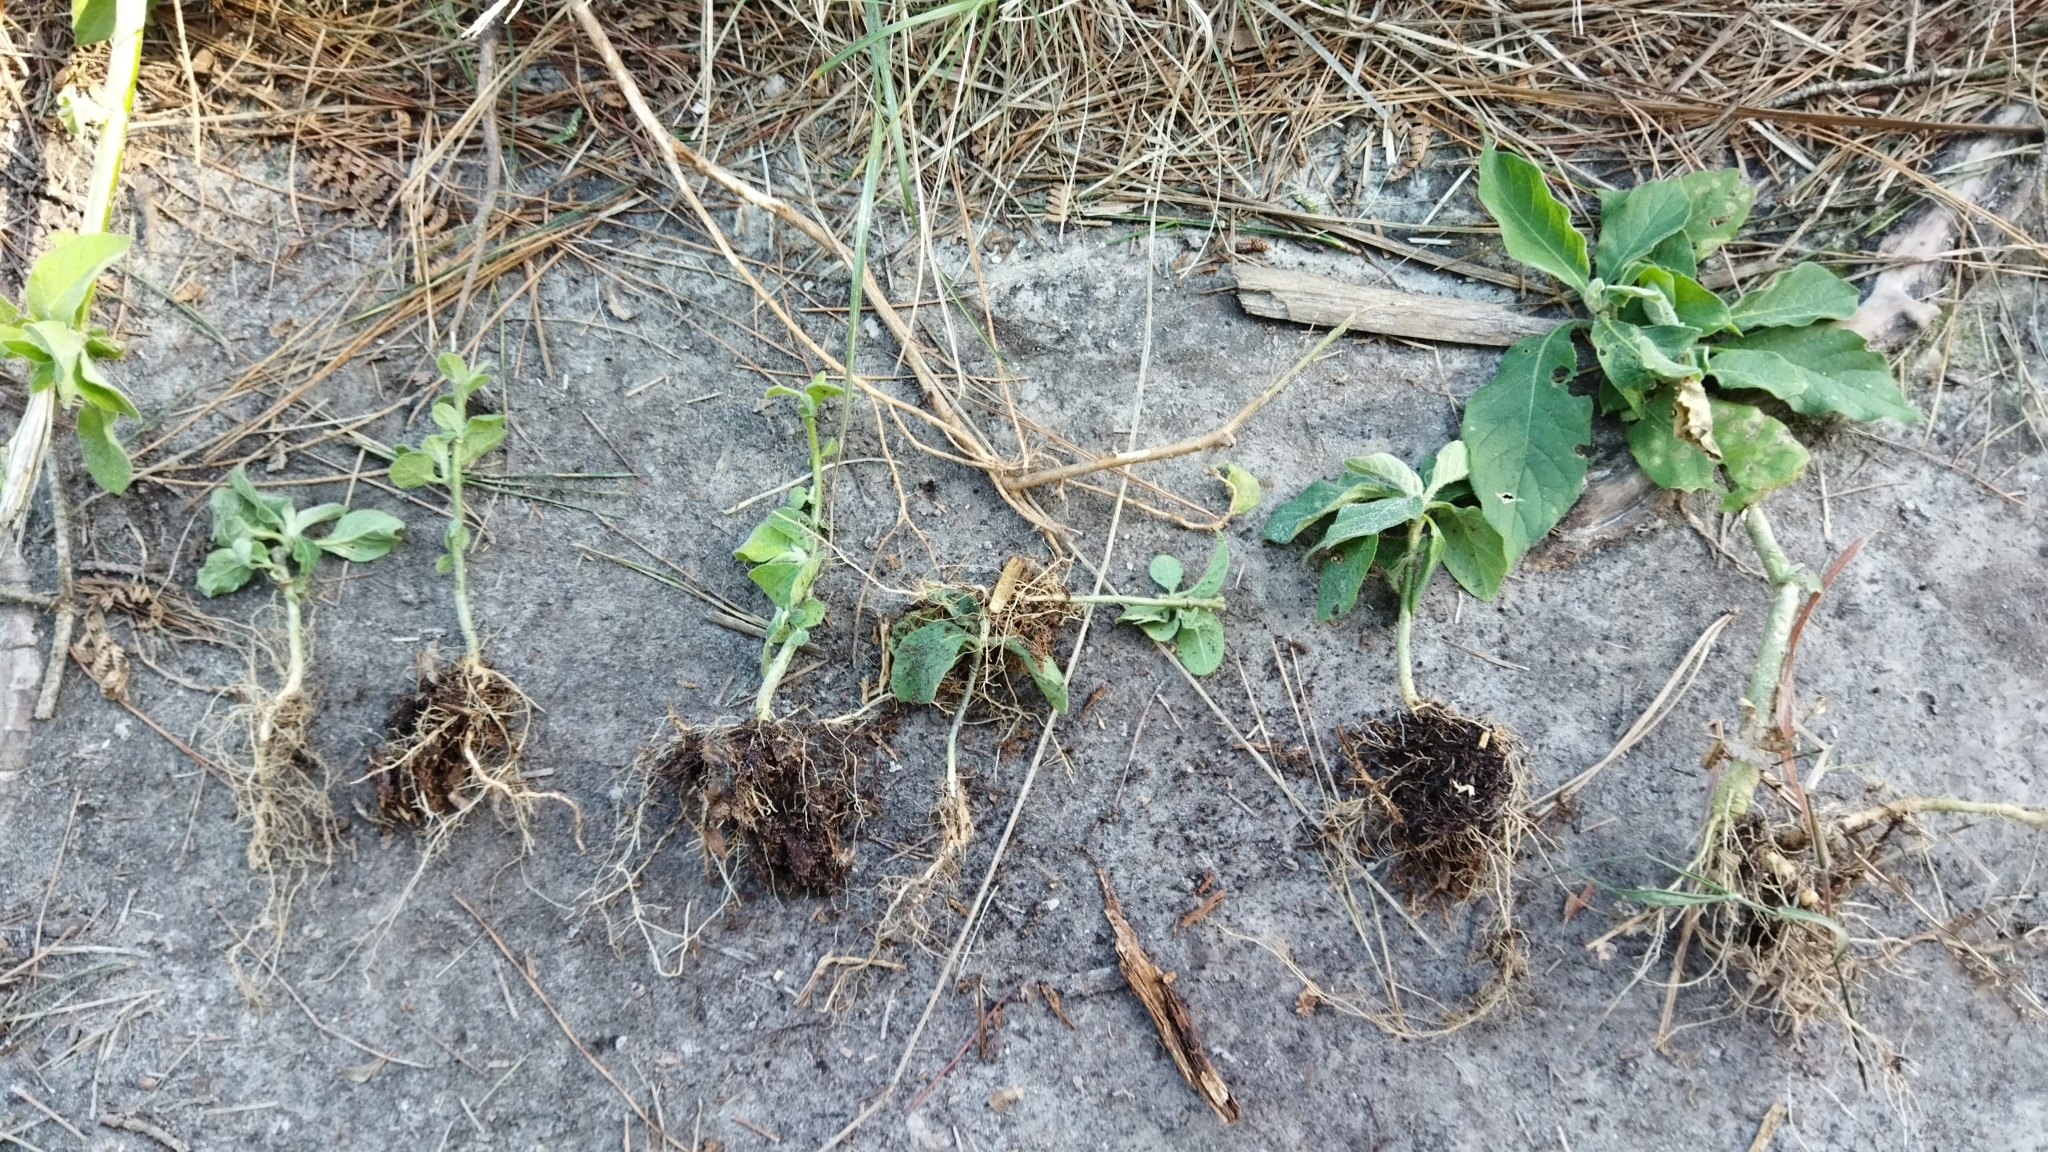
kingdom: Plantae
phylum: Tracheophyta
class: Magnoliopsida
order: Solanales
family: Solanaceae
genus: Solanum
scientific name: Solanum mauritianum
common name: Earleaf nightshade
